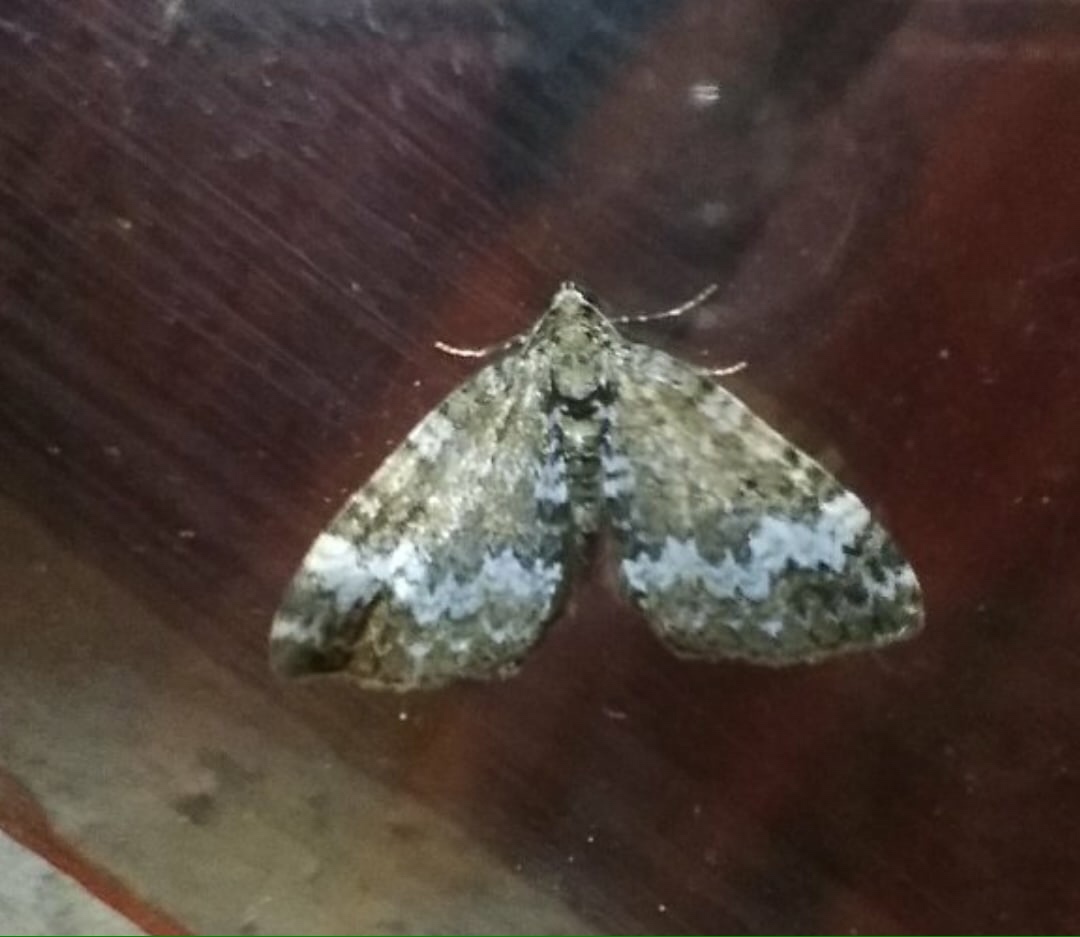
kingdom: Animalia
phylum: Arthropoda
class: Insecta
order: Lepidoptera
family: Geometridae
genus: Perizoma
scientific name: Perizoma alchemillata
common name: Small rivulet
